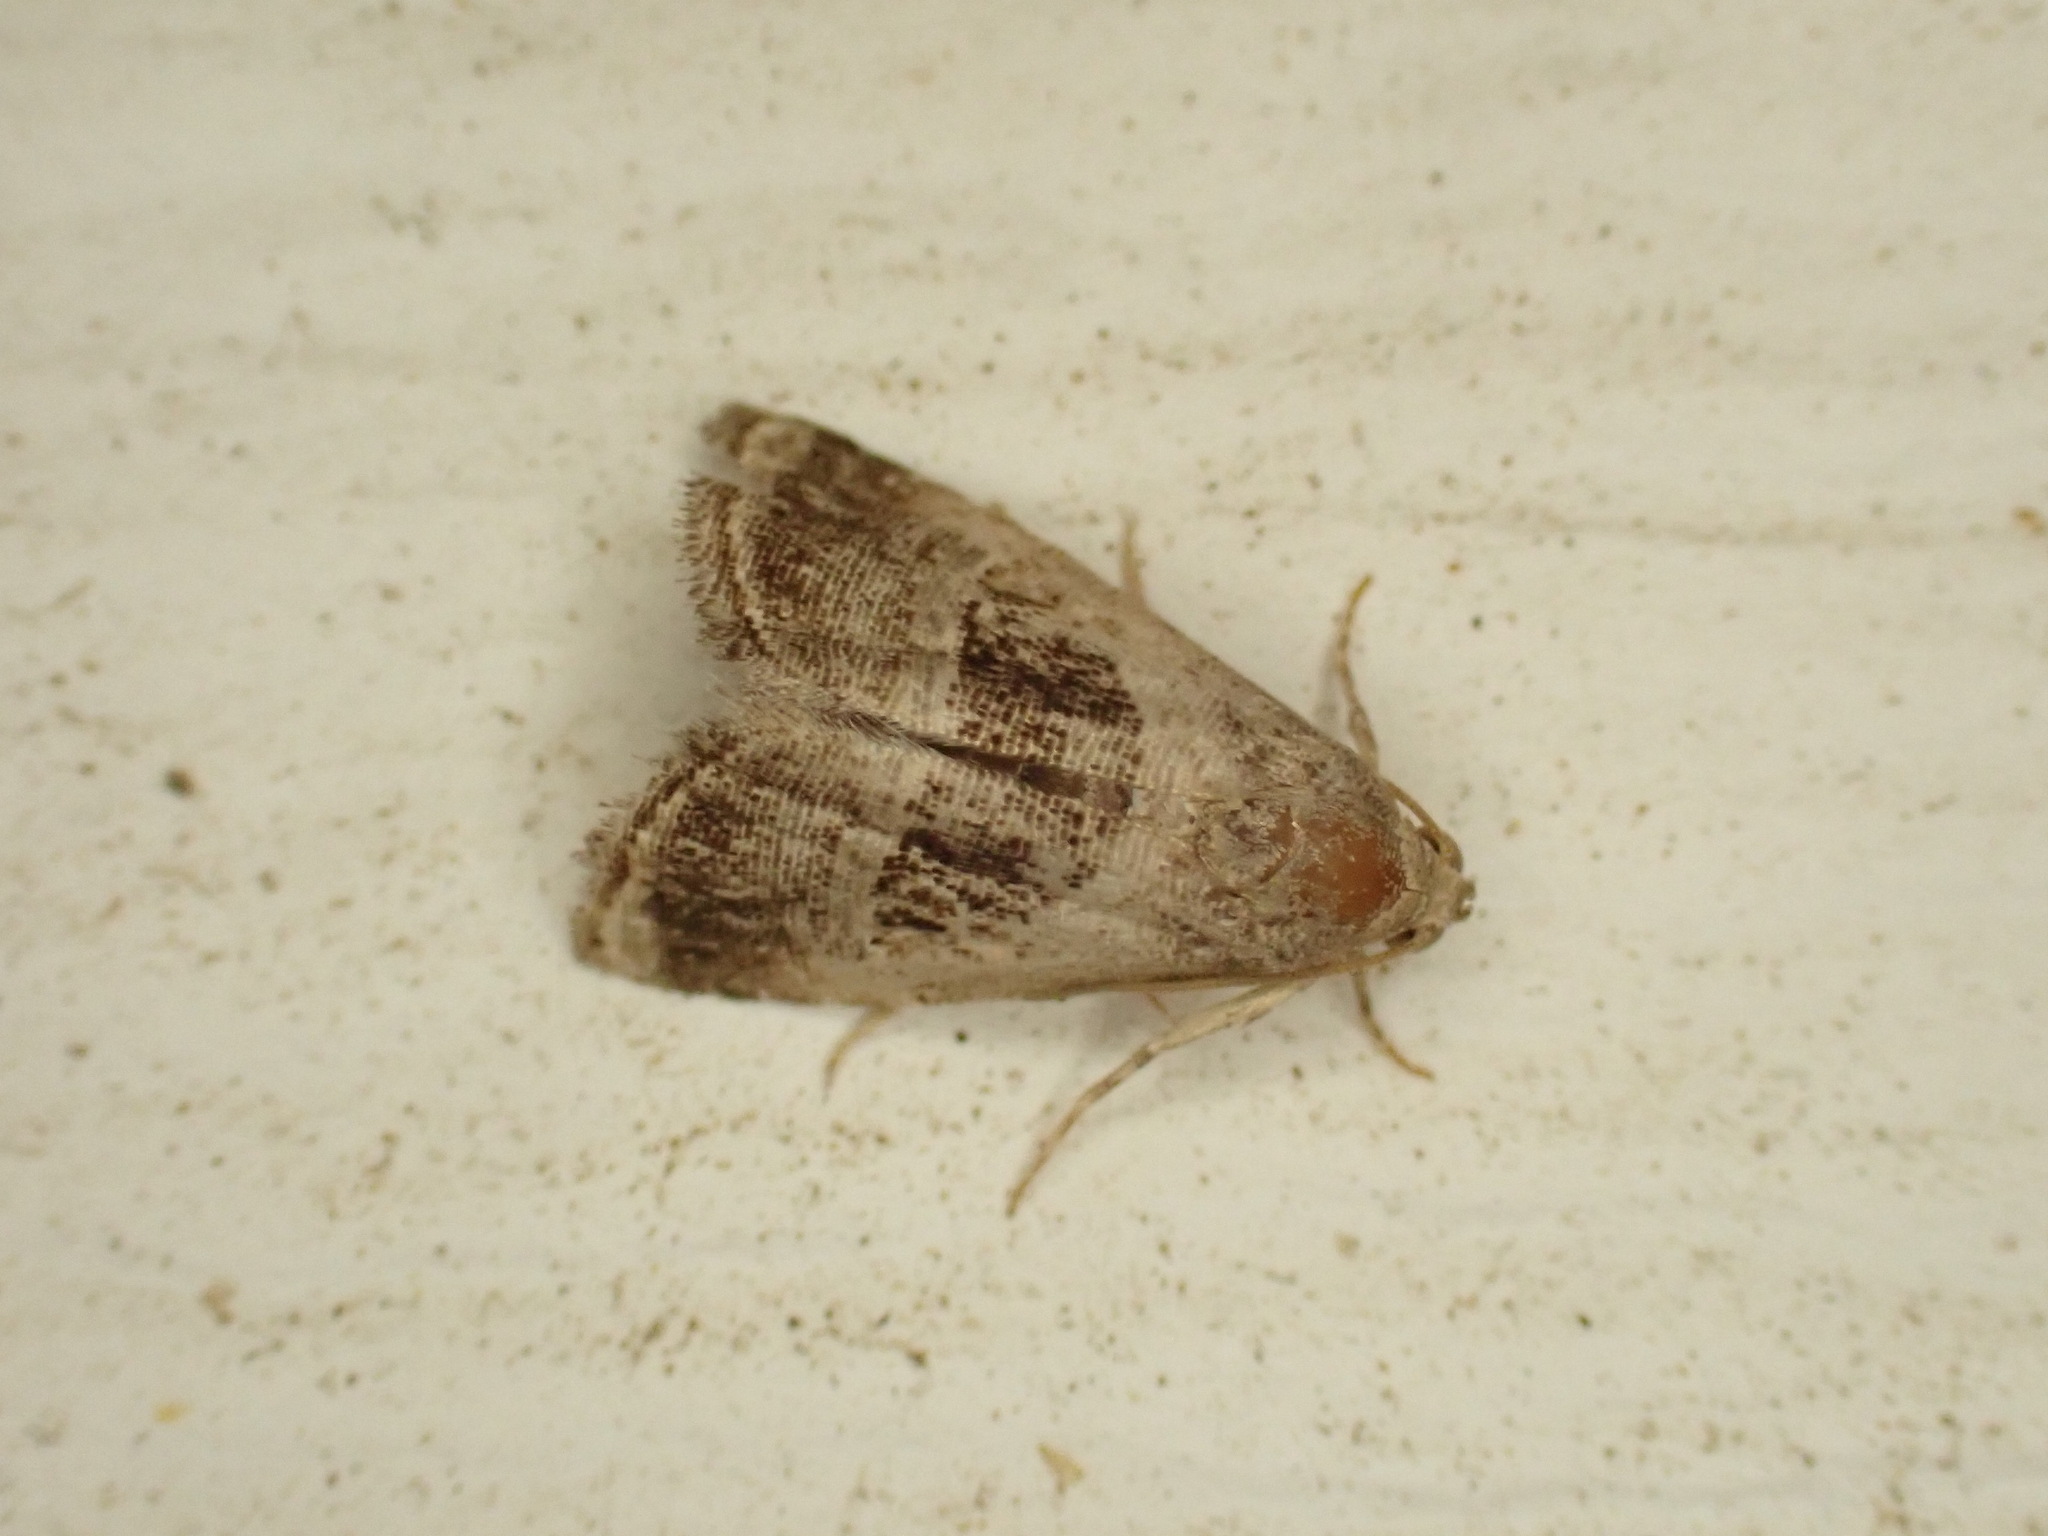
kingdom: Animalia
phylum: Arthropoda
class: Insecta
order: Lepidoptera
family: Noctuidae
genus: Tripudia
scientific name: Tripudia rectangula
